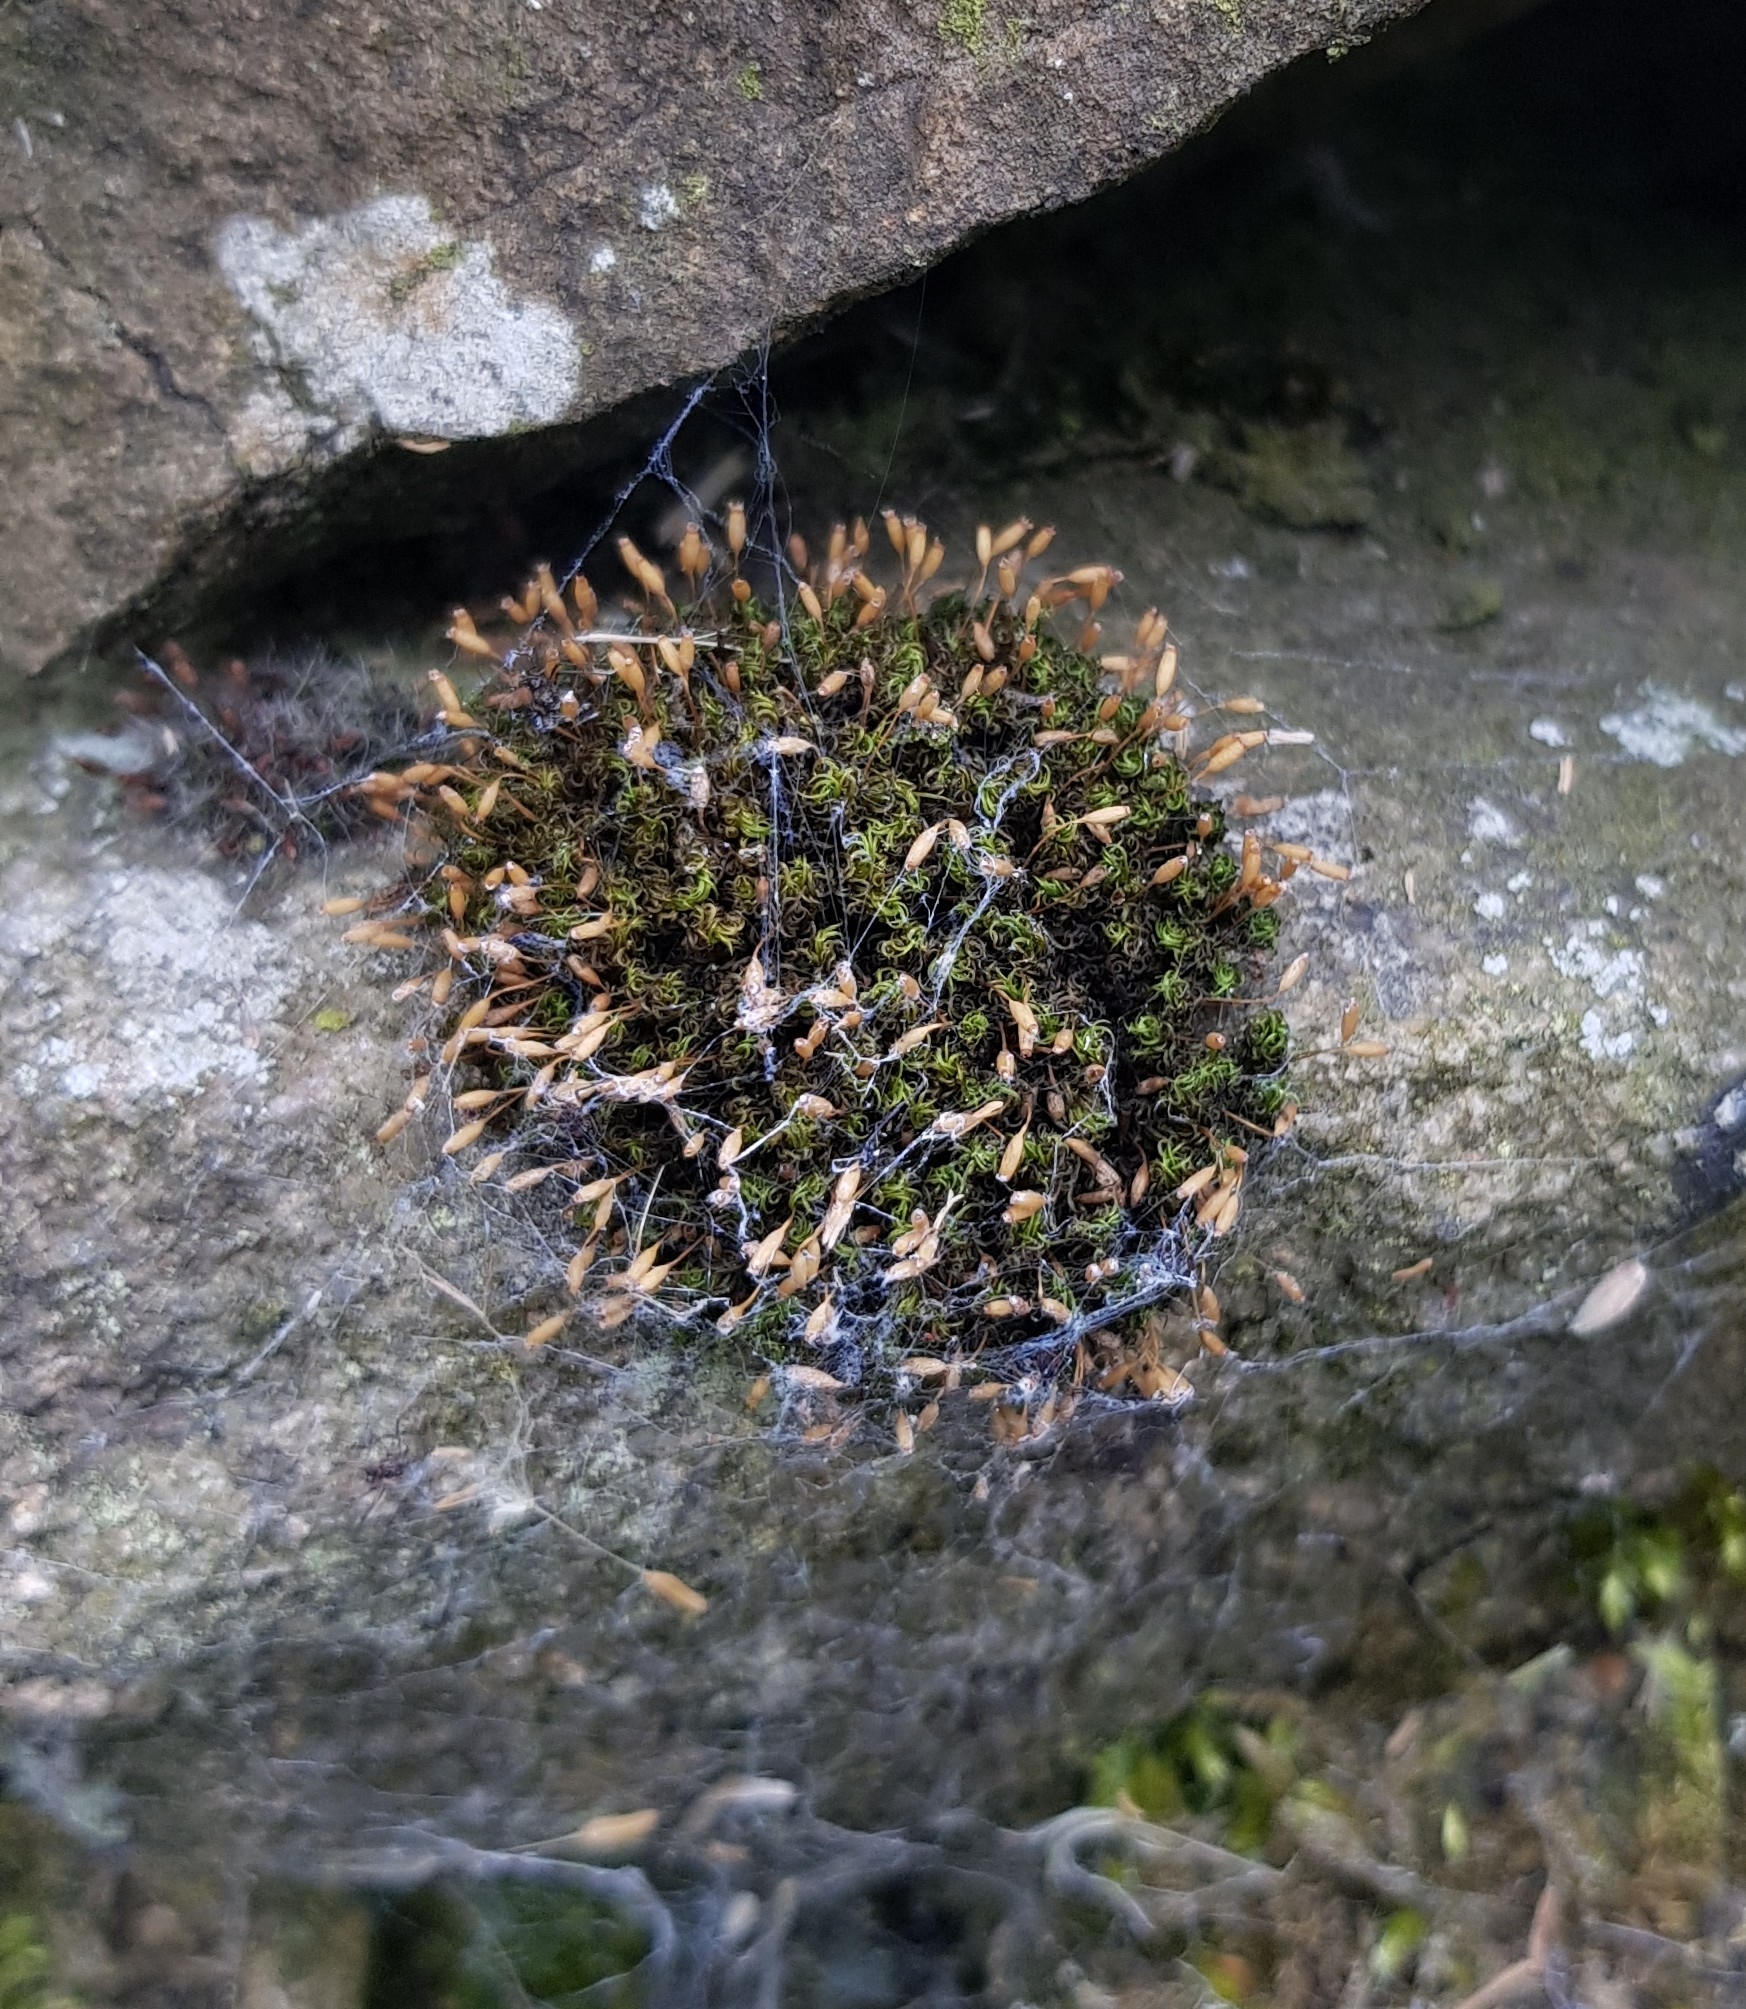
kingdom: Plantae
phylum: Bryophyta
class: Bryopsida
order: Grimmiales
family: Ptychomitriaceae
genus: Ptychomitrium
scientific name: Ptychomitrium polyphyllum
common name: Greater pincushion
